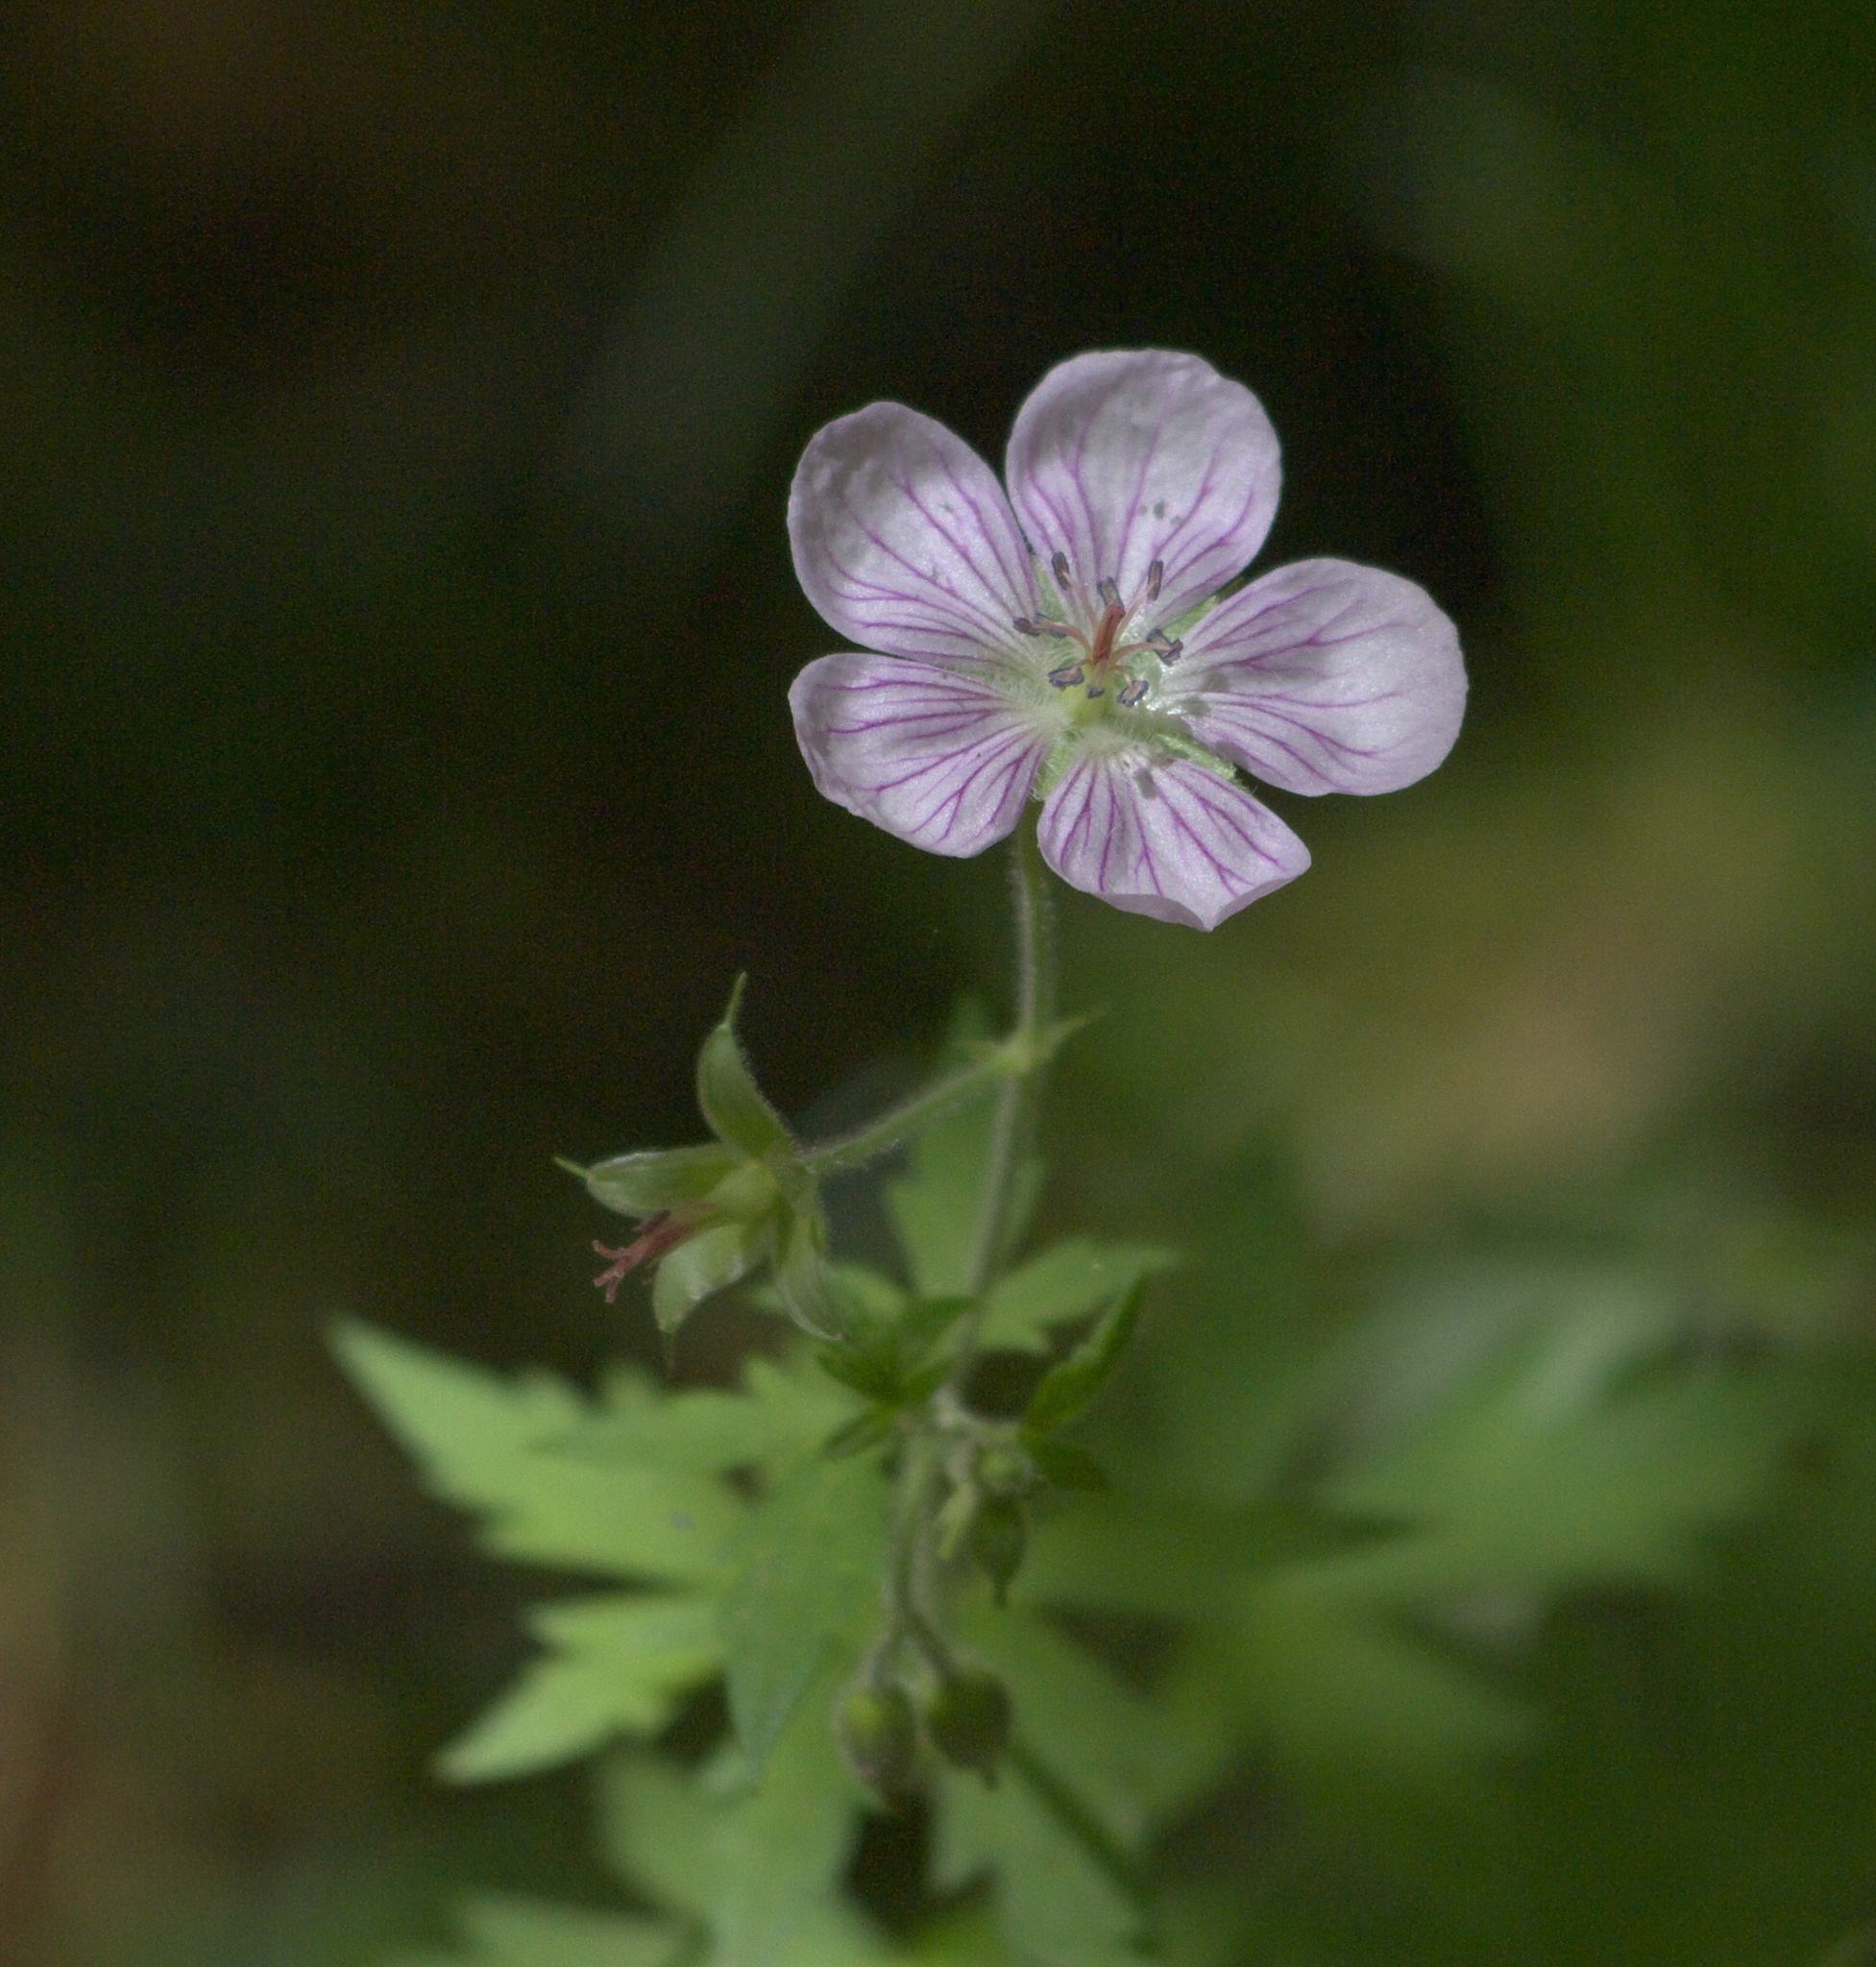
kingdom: Plantae
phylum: Tracheophyta
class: Magnoliopsida
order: Geraniales
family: Geraniaceae
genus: Geranium
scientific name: Geranium richardsonii
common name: Richardson's crane's-bill
